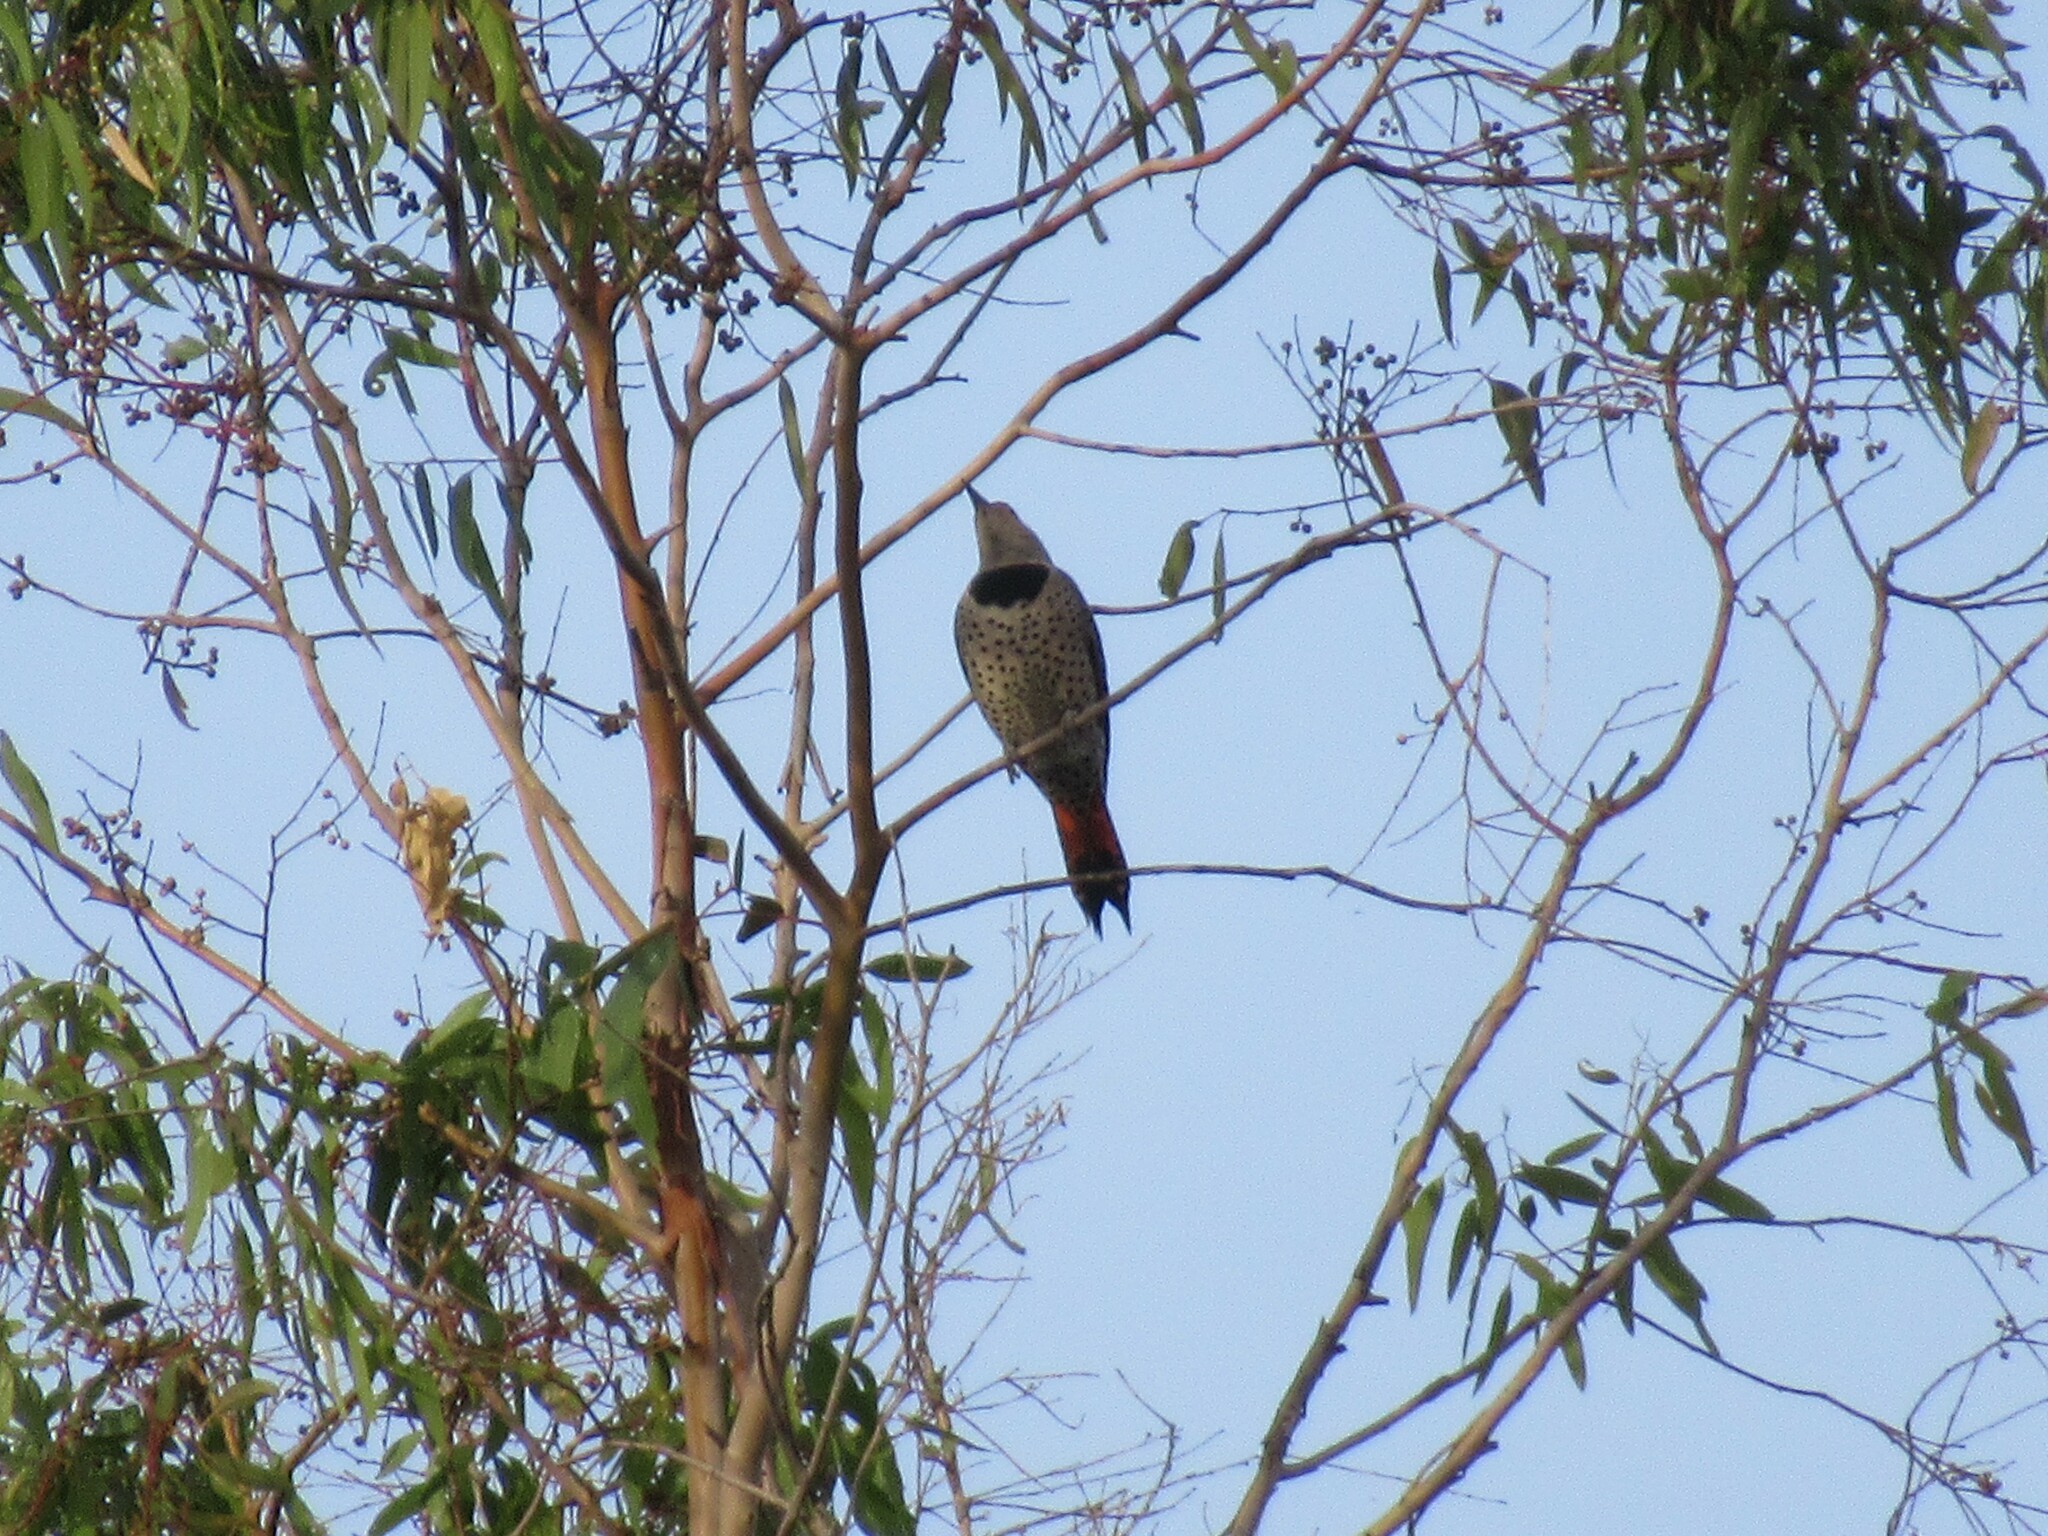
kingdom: Animalia
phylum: Chordata
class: Aves
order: Piciformes
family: Picidae
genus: Colaptes
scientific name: Colaptes auratus
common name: Northern flicker
